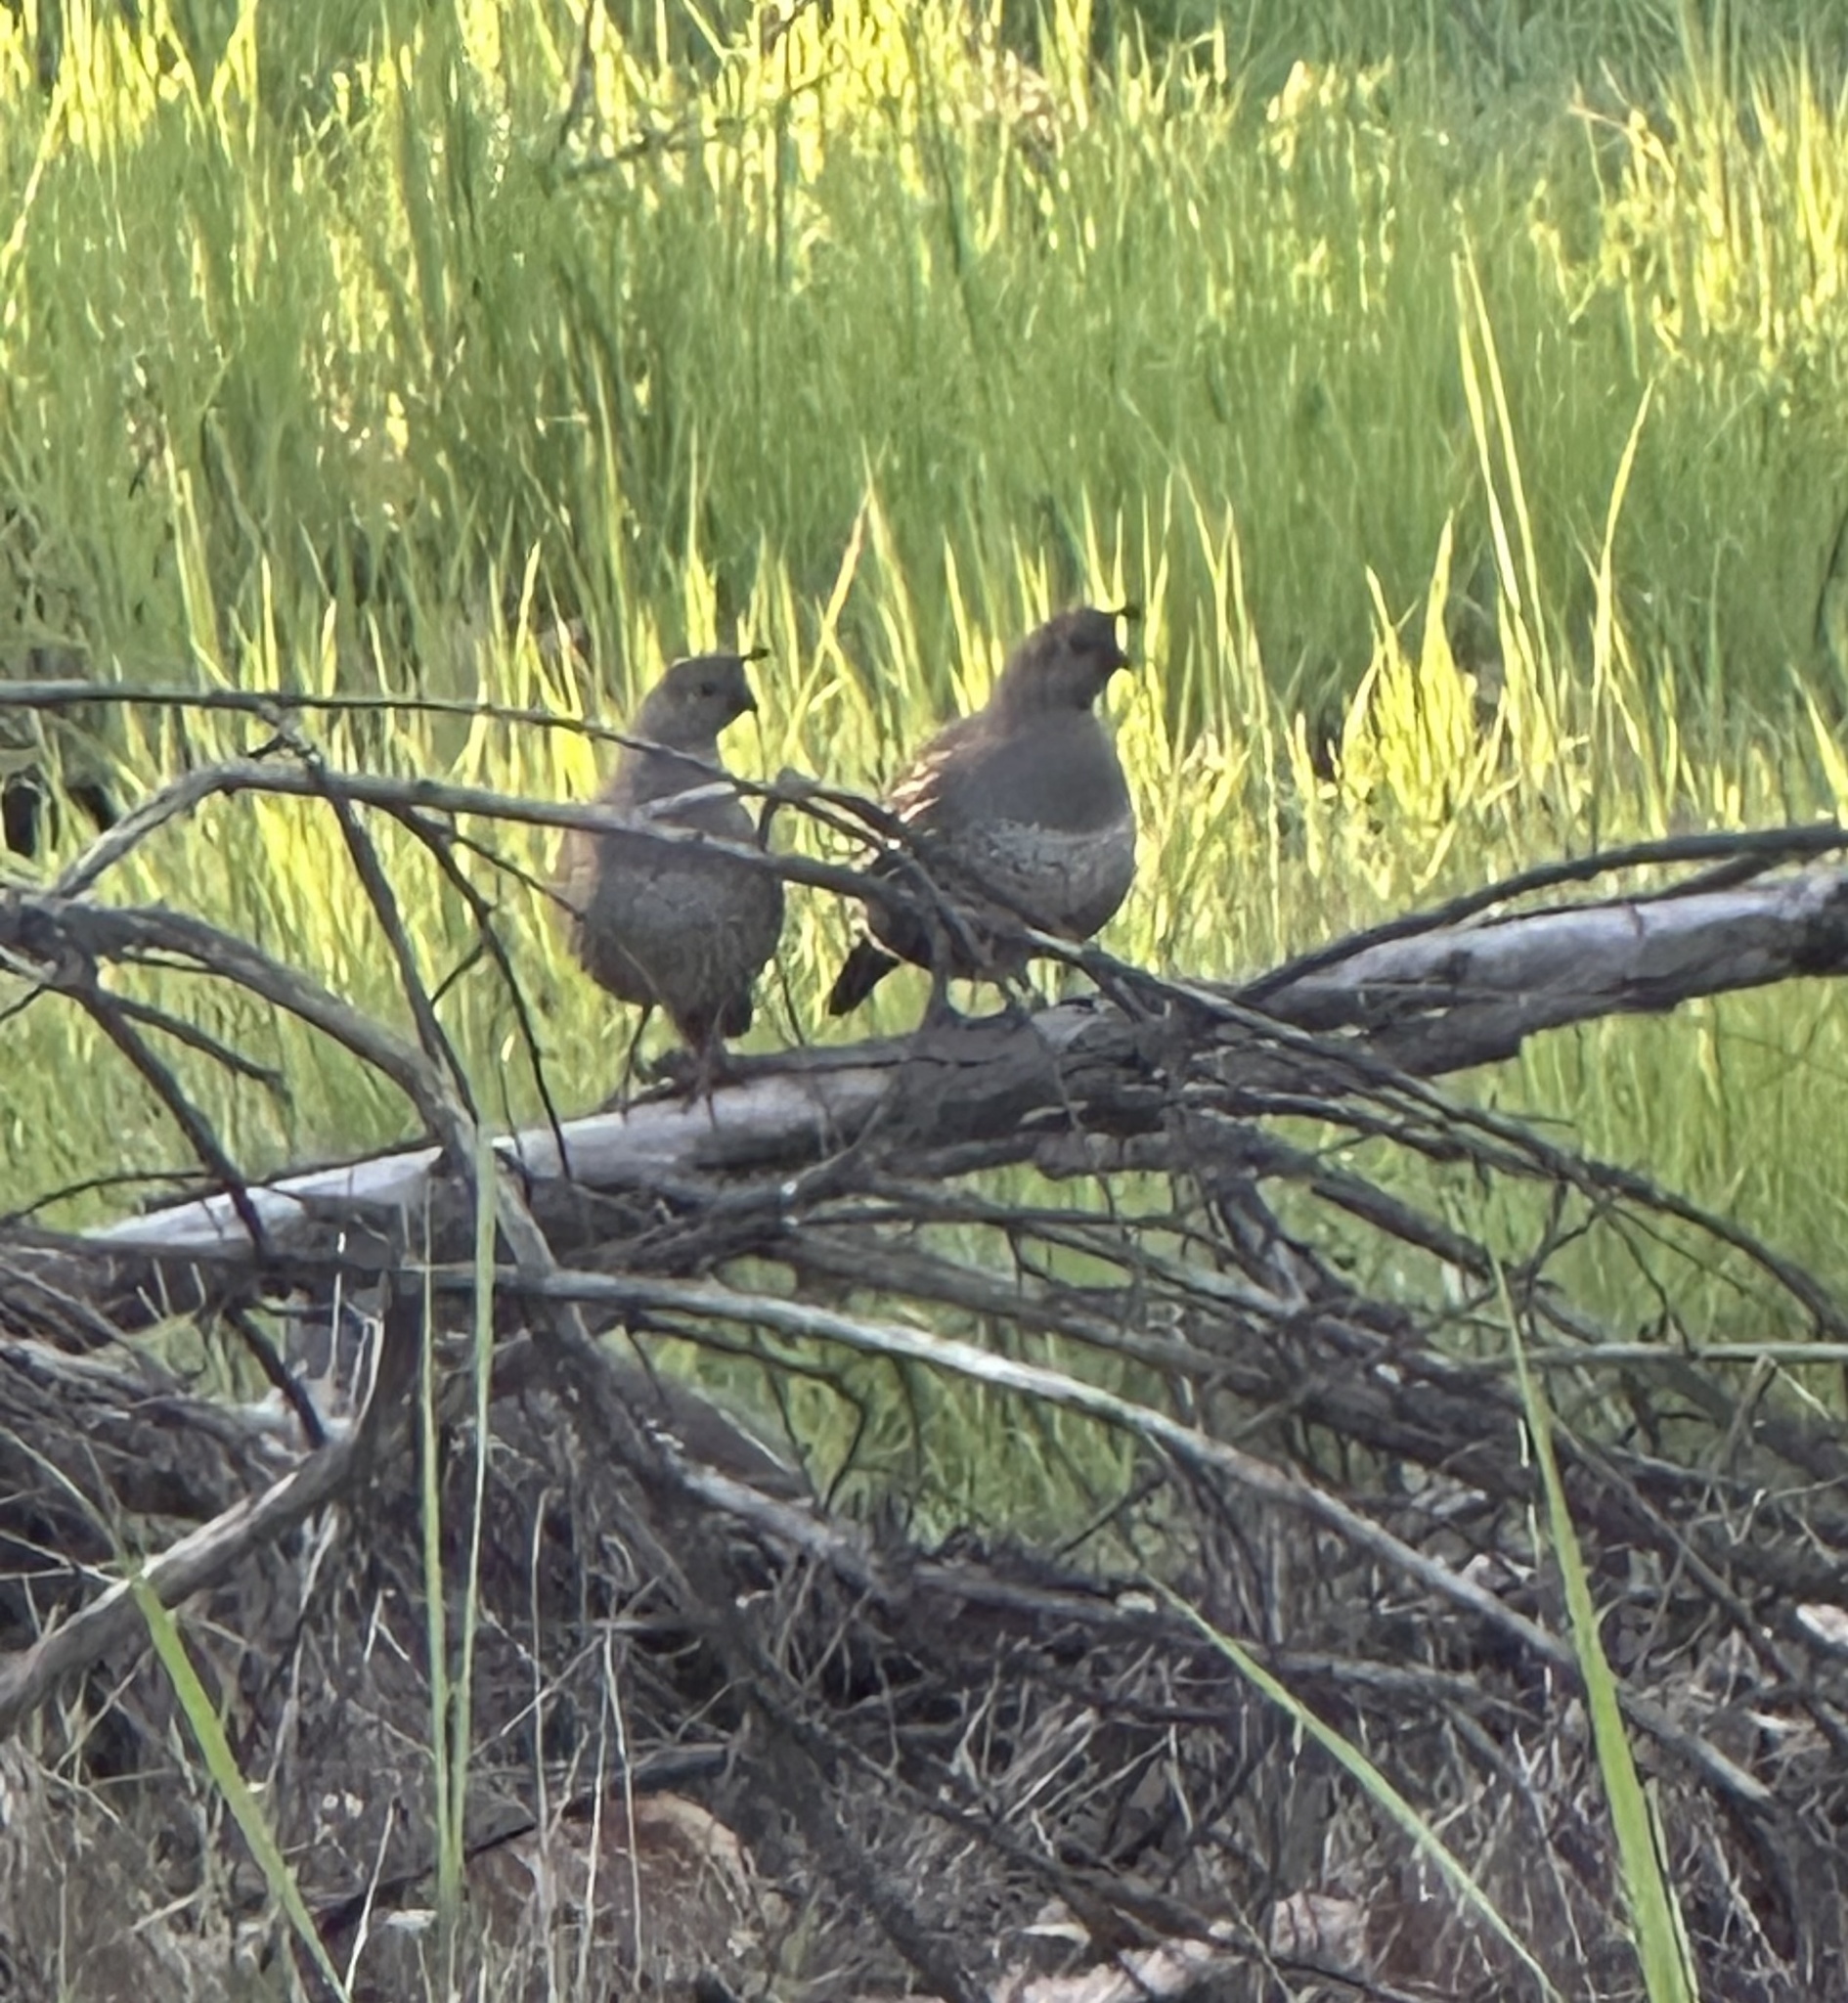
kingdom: Animalia
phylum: Chordata
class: Aves
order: Galliformes
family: Odontophoridae
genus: Callipepla
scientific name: Callipepla californica
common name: California quail
